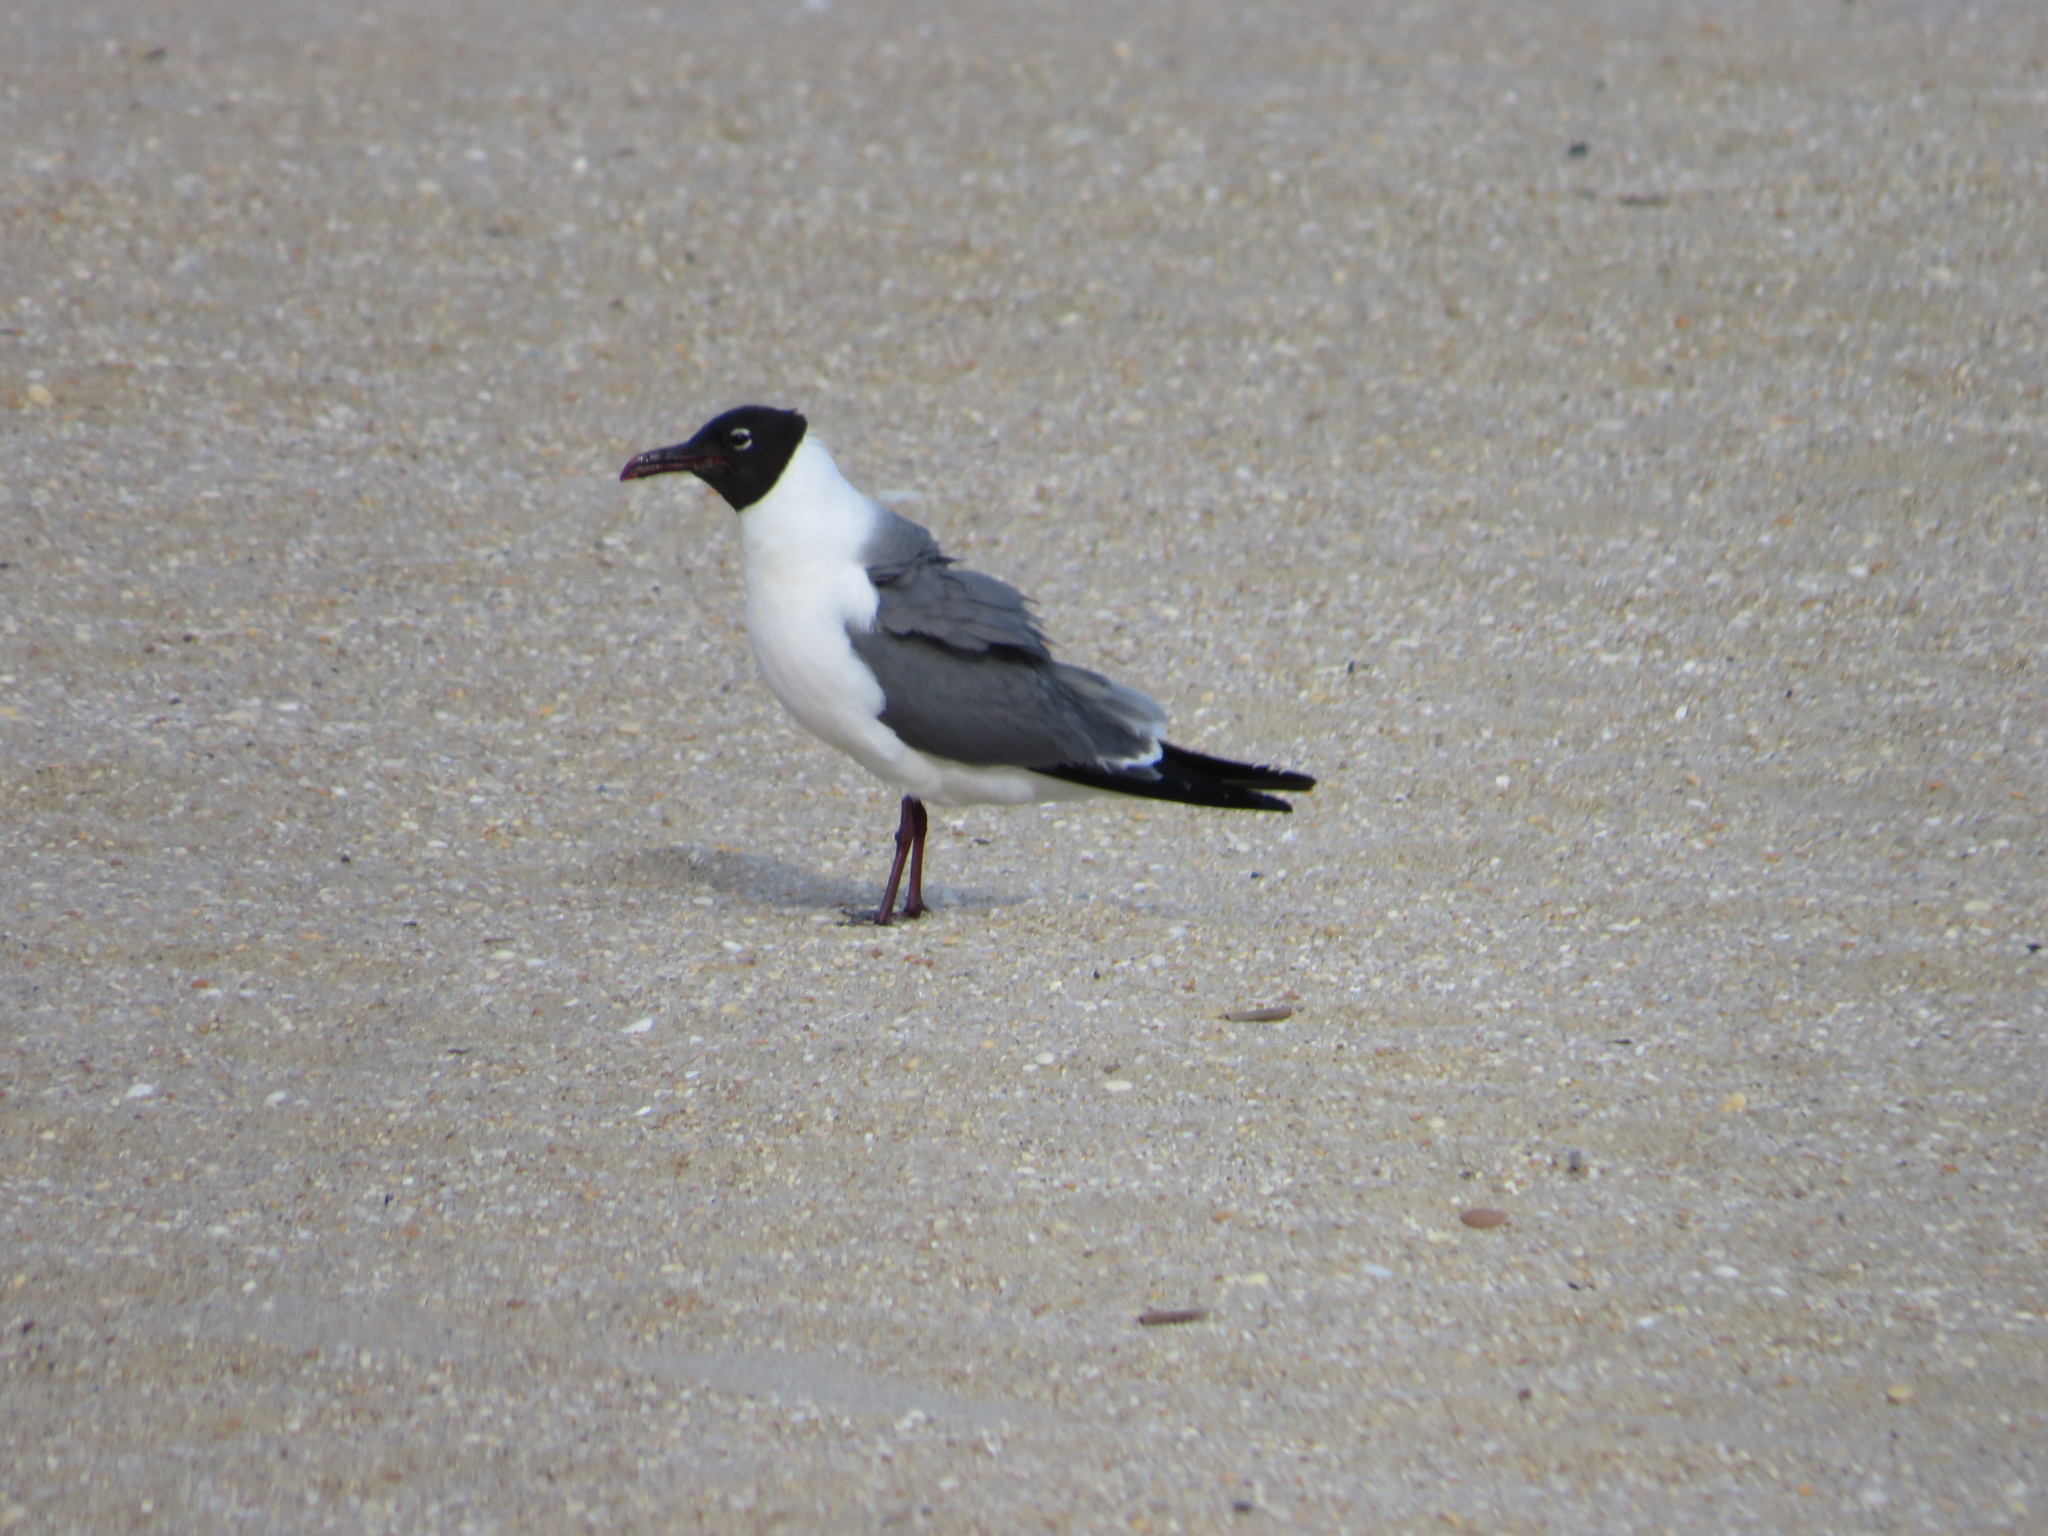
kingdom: Animalia
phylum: Chordata
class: Aves
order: Charadriiformes
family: Laridae
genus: Leucophaeus
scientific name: Leucophaeus atricilla
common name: Laughing gull
